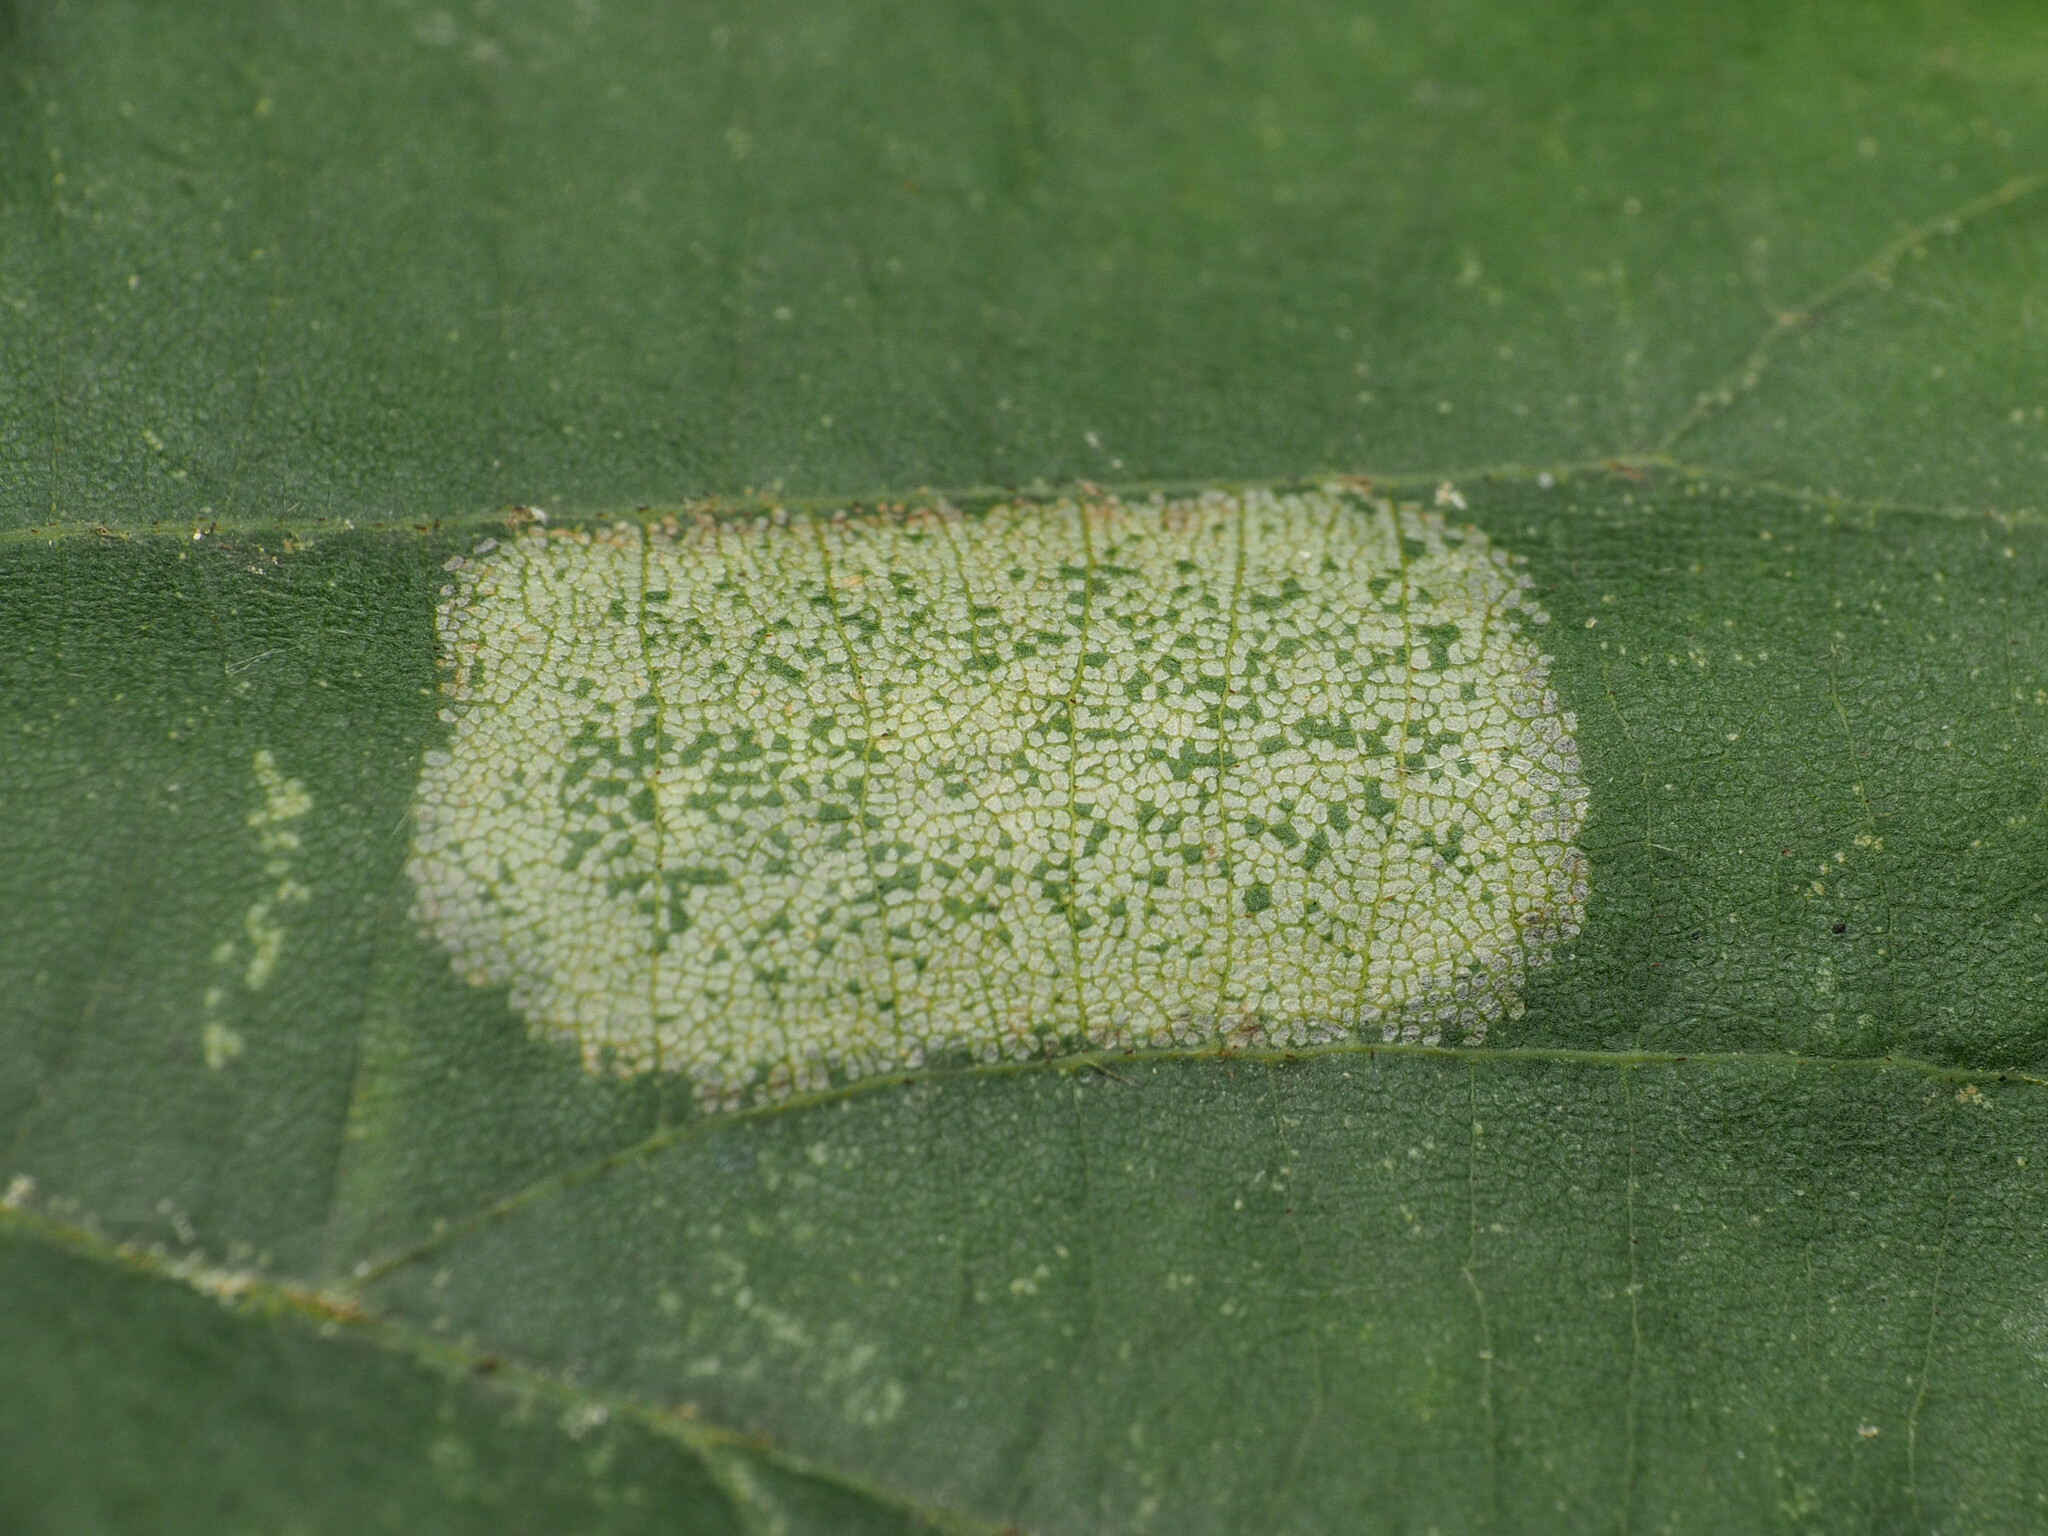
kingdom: Animalia
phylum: Arthropoda
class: Insecta
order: Lepidoptera
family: Gracillariidae
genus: Phyllonorycter
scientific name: Phyllonorycter lucetiella
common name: Basswood miner moth
